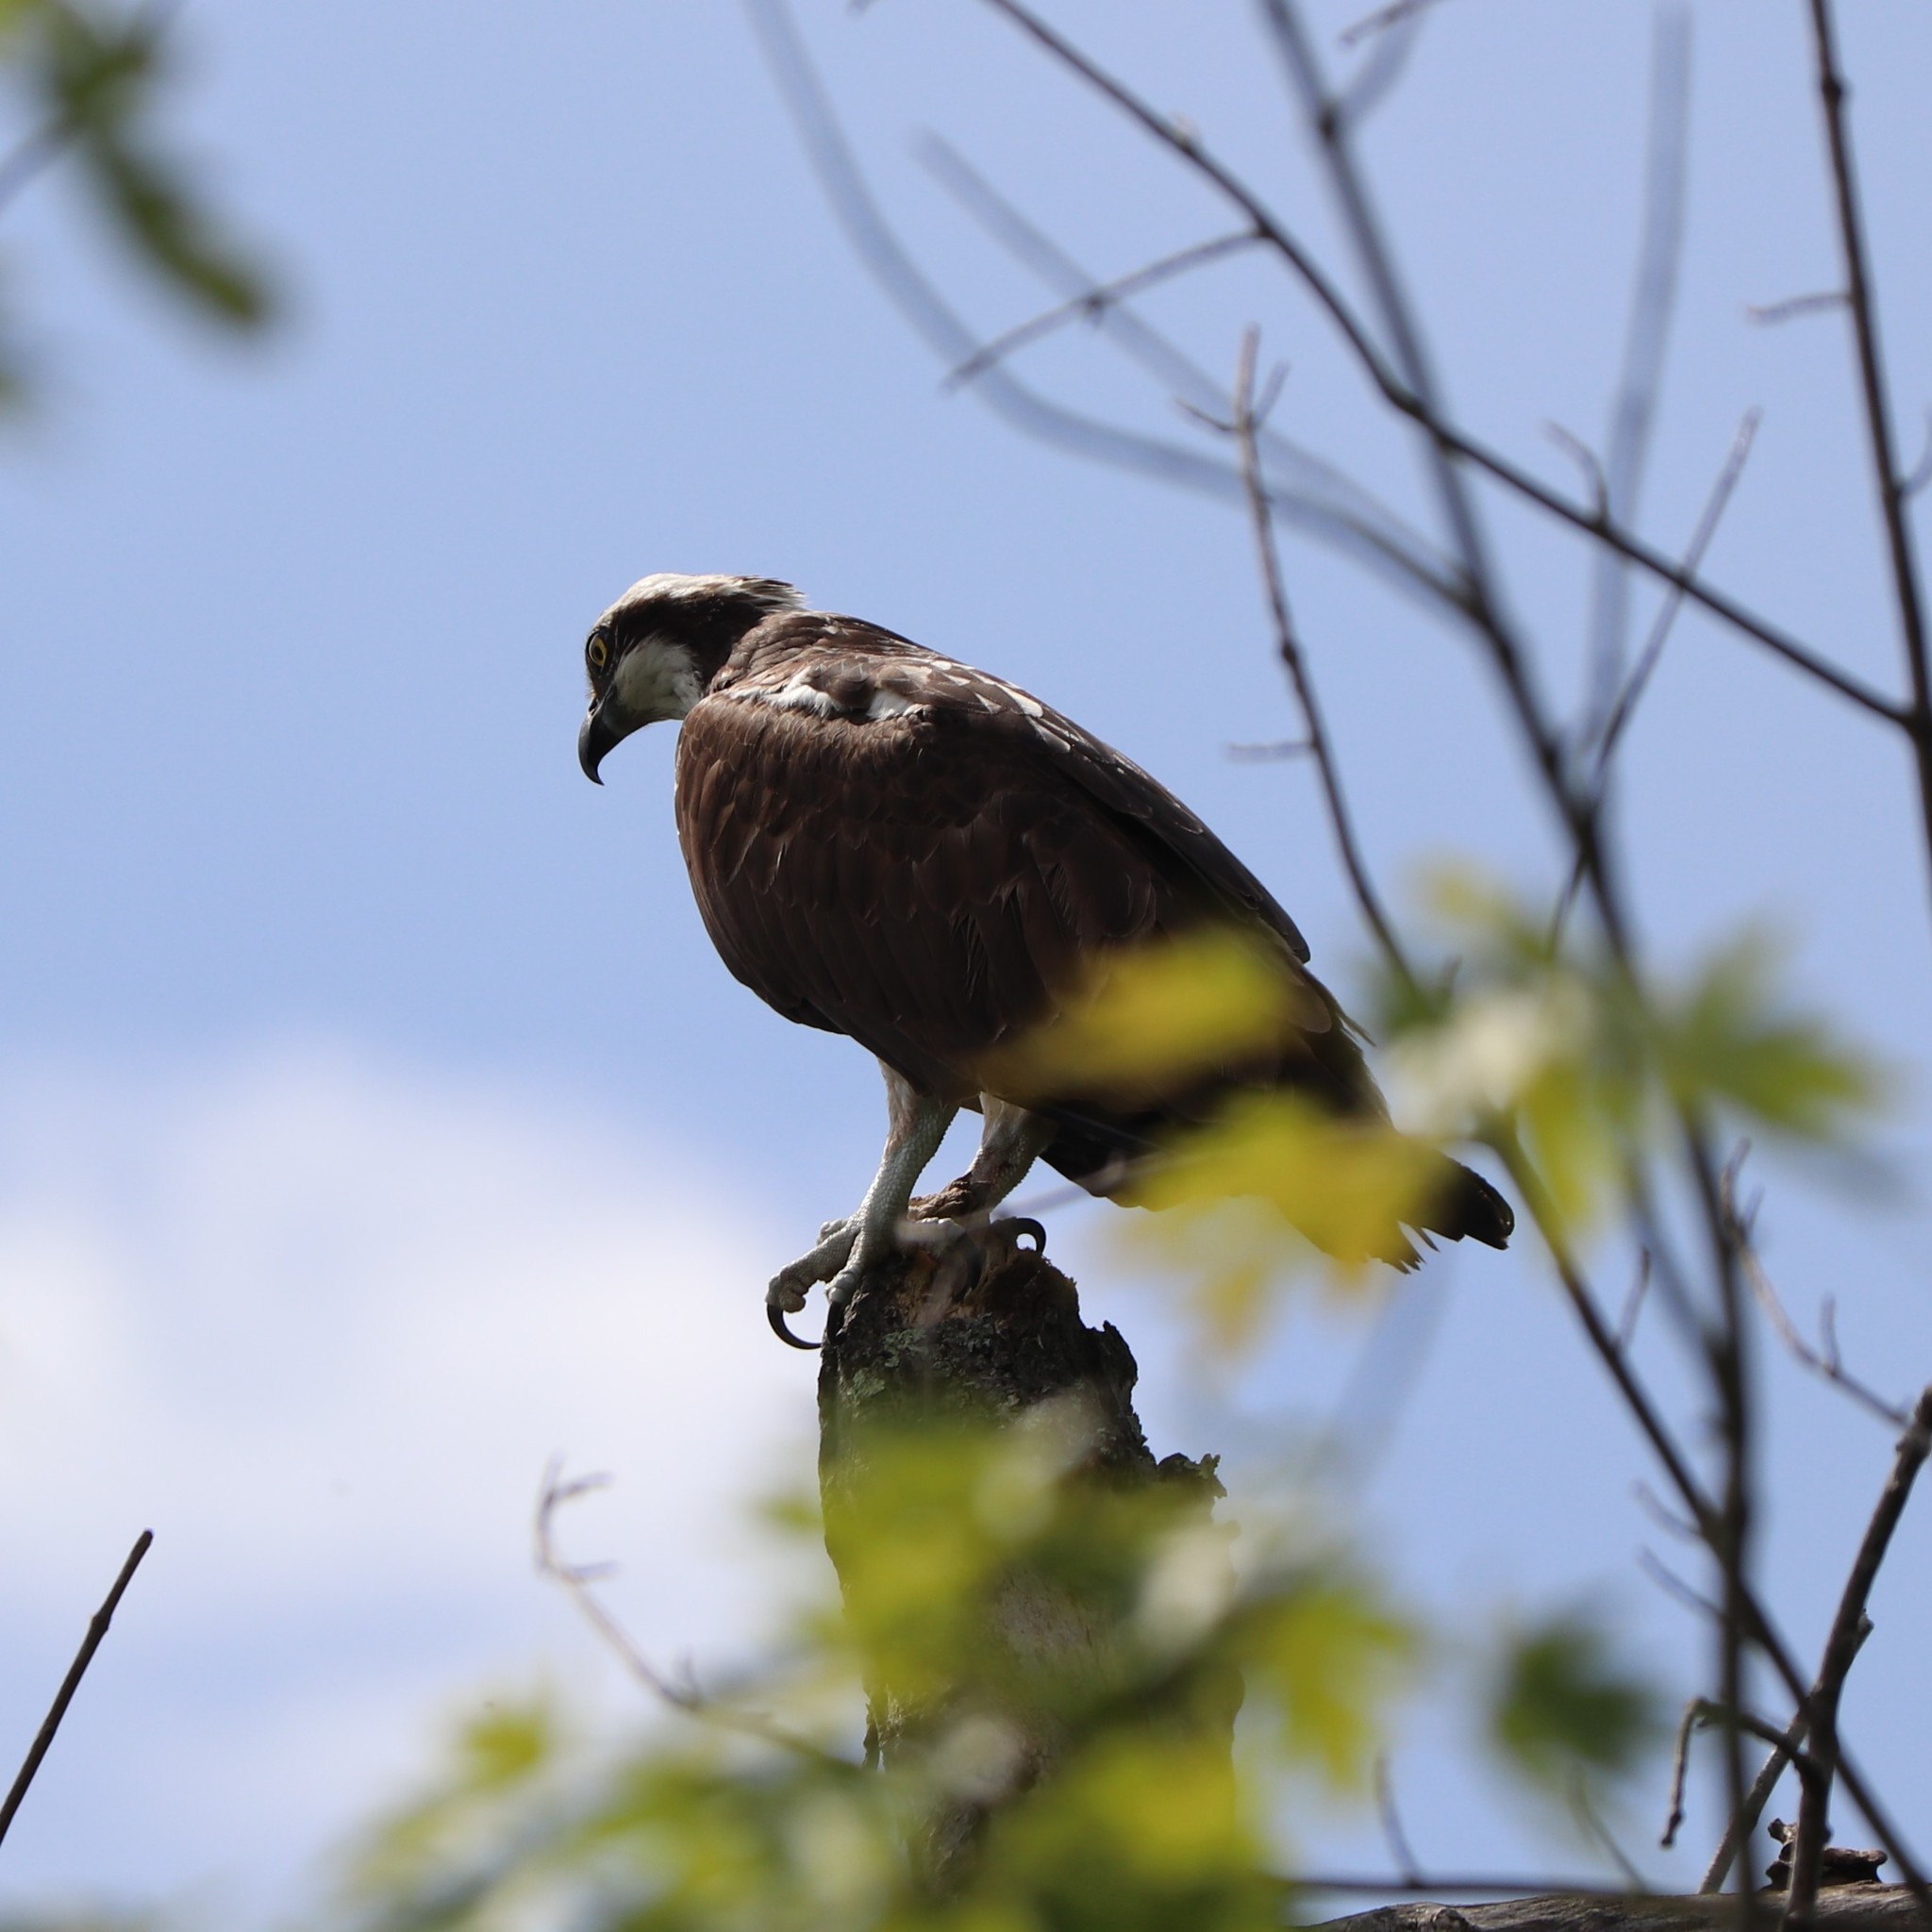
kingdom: Animalia
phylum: Chordata
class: Aves
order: Accipitriformes
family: Pandionidae
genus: Pandion
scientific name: Pandion haliaetus
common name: Osprey
